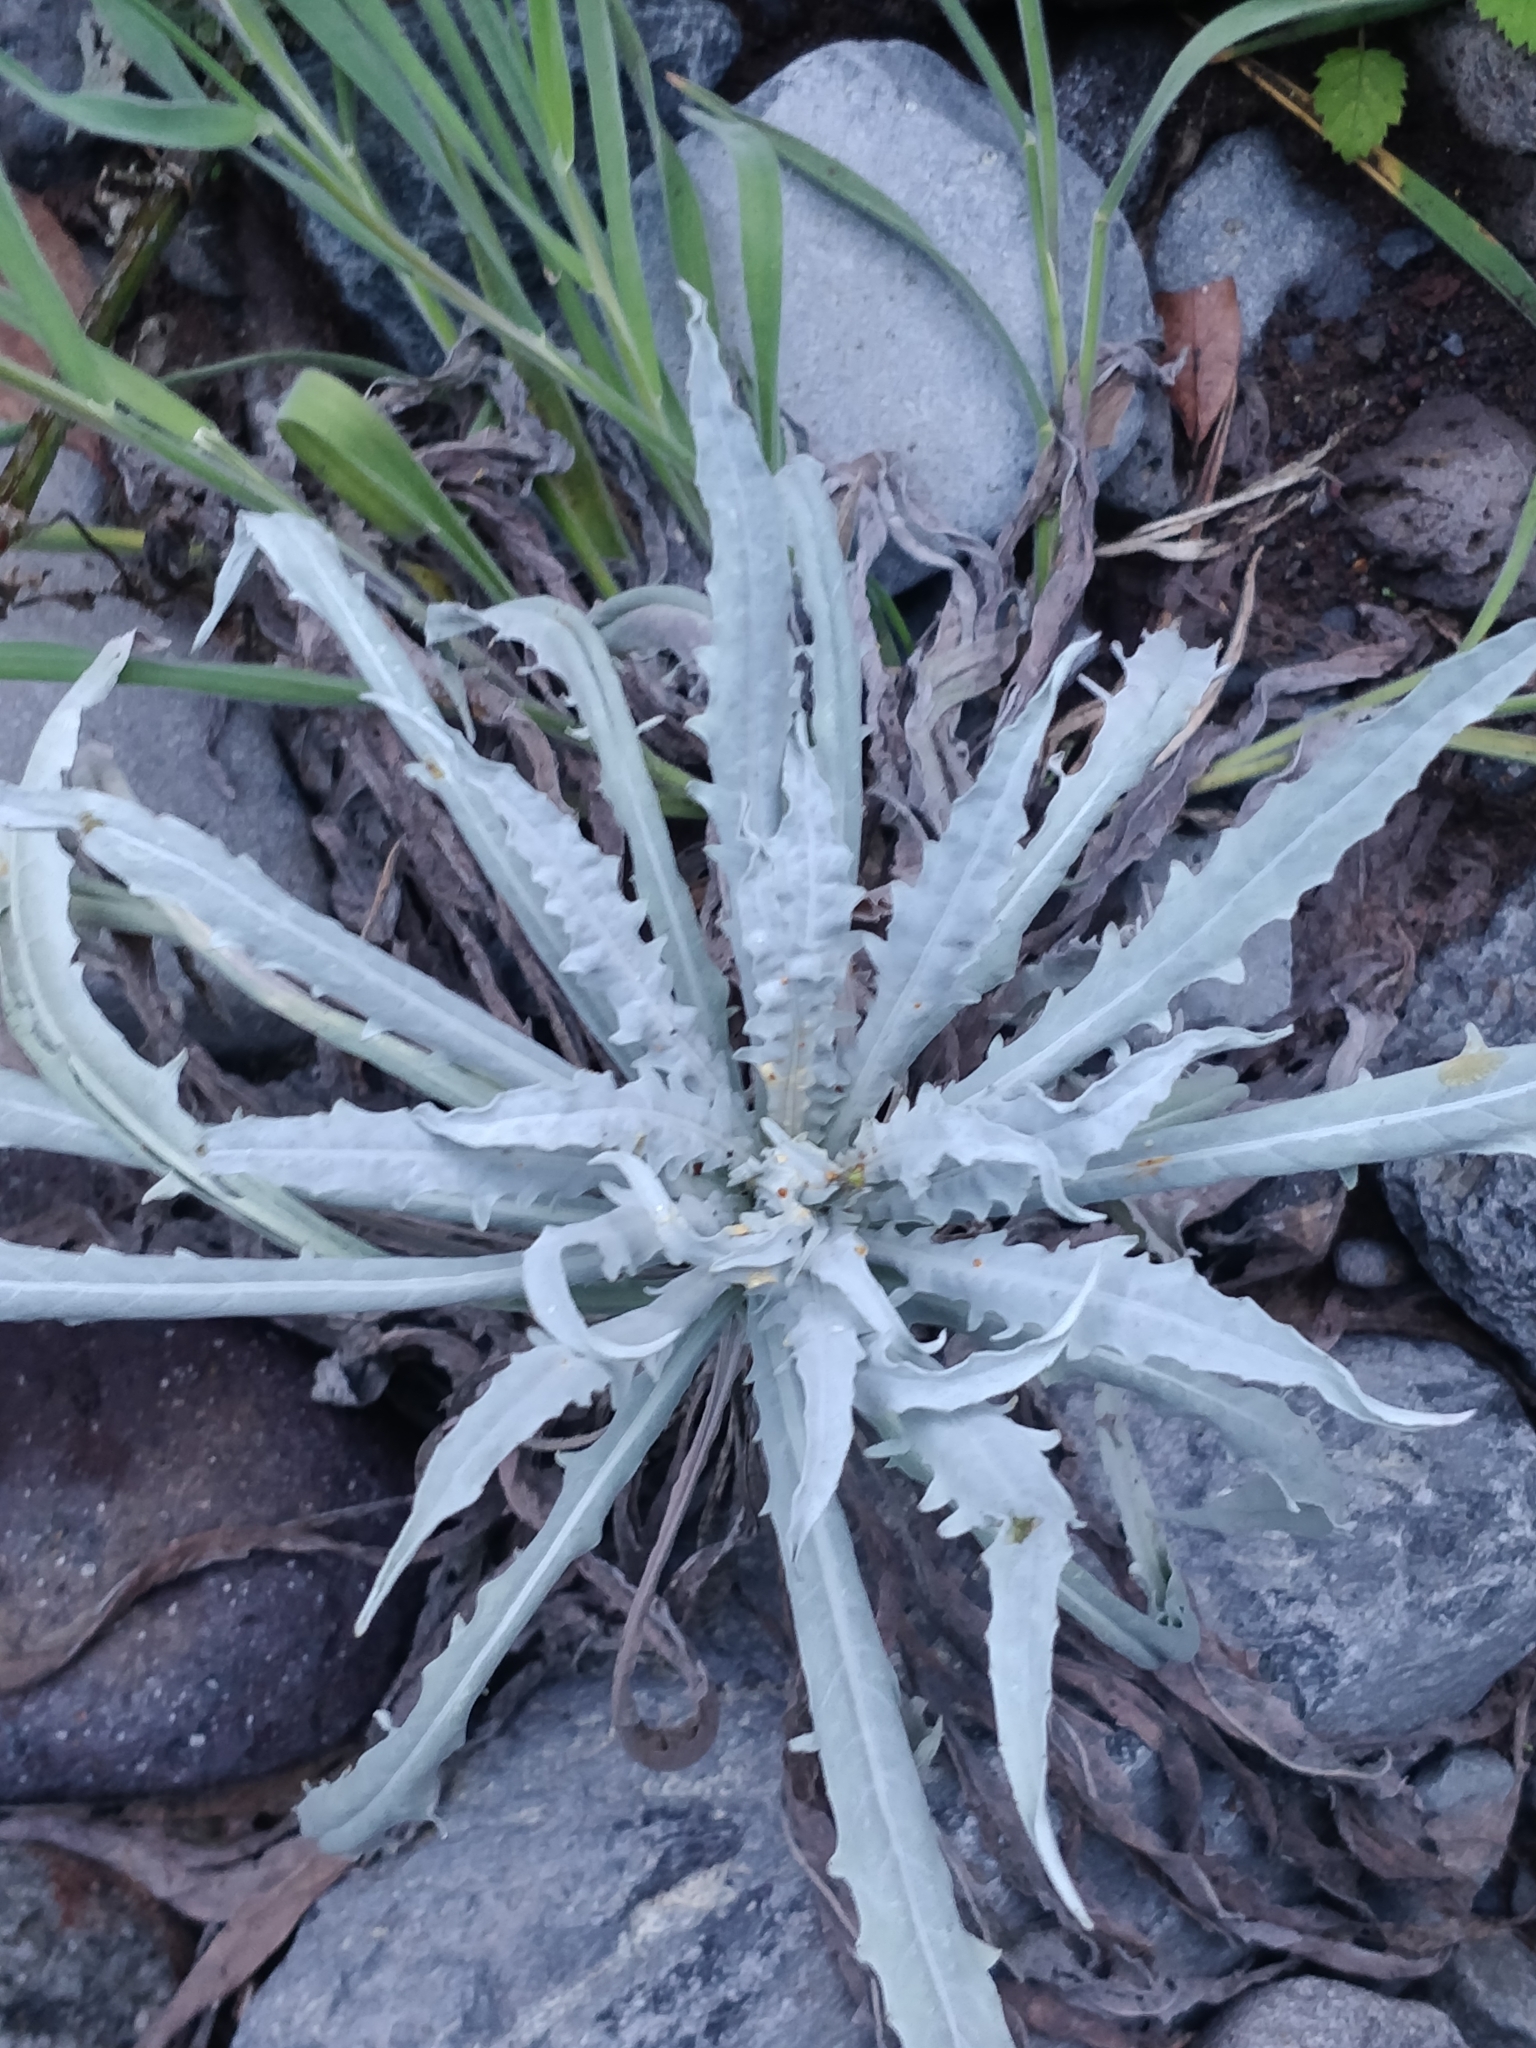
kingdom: Plantae
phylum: Tracheophyta
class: Magnoliopsida
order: Asterales
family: Asteraceae
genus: Andryala
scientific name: Andryala glandulosa
